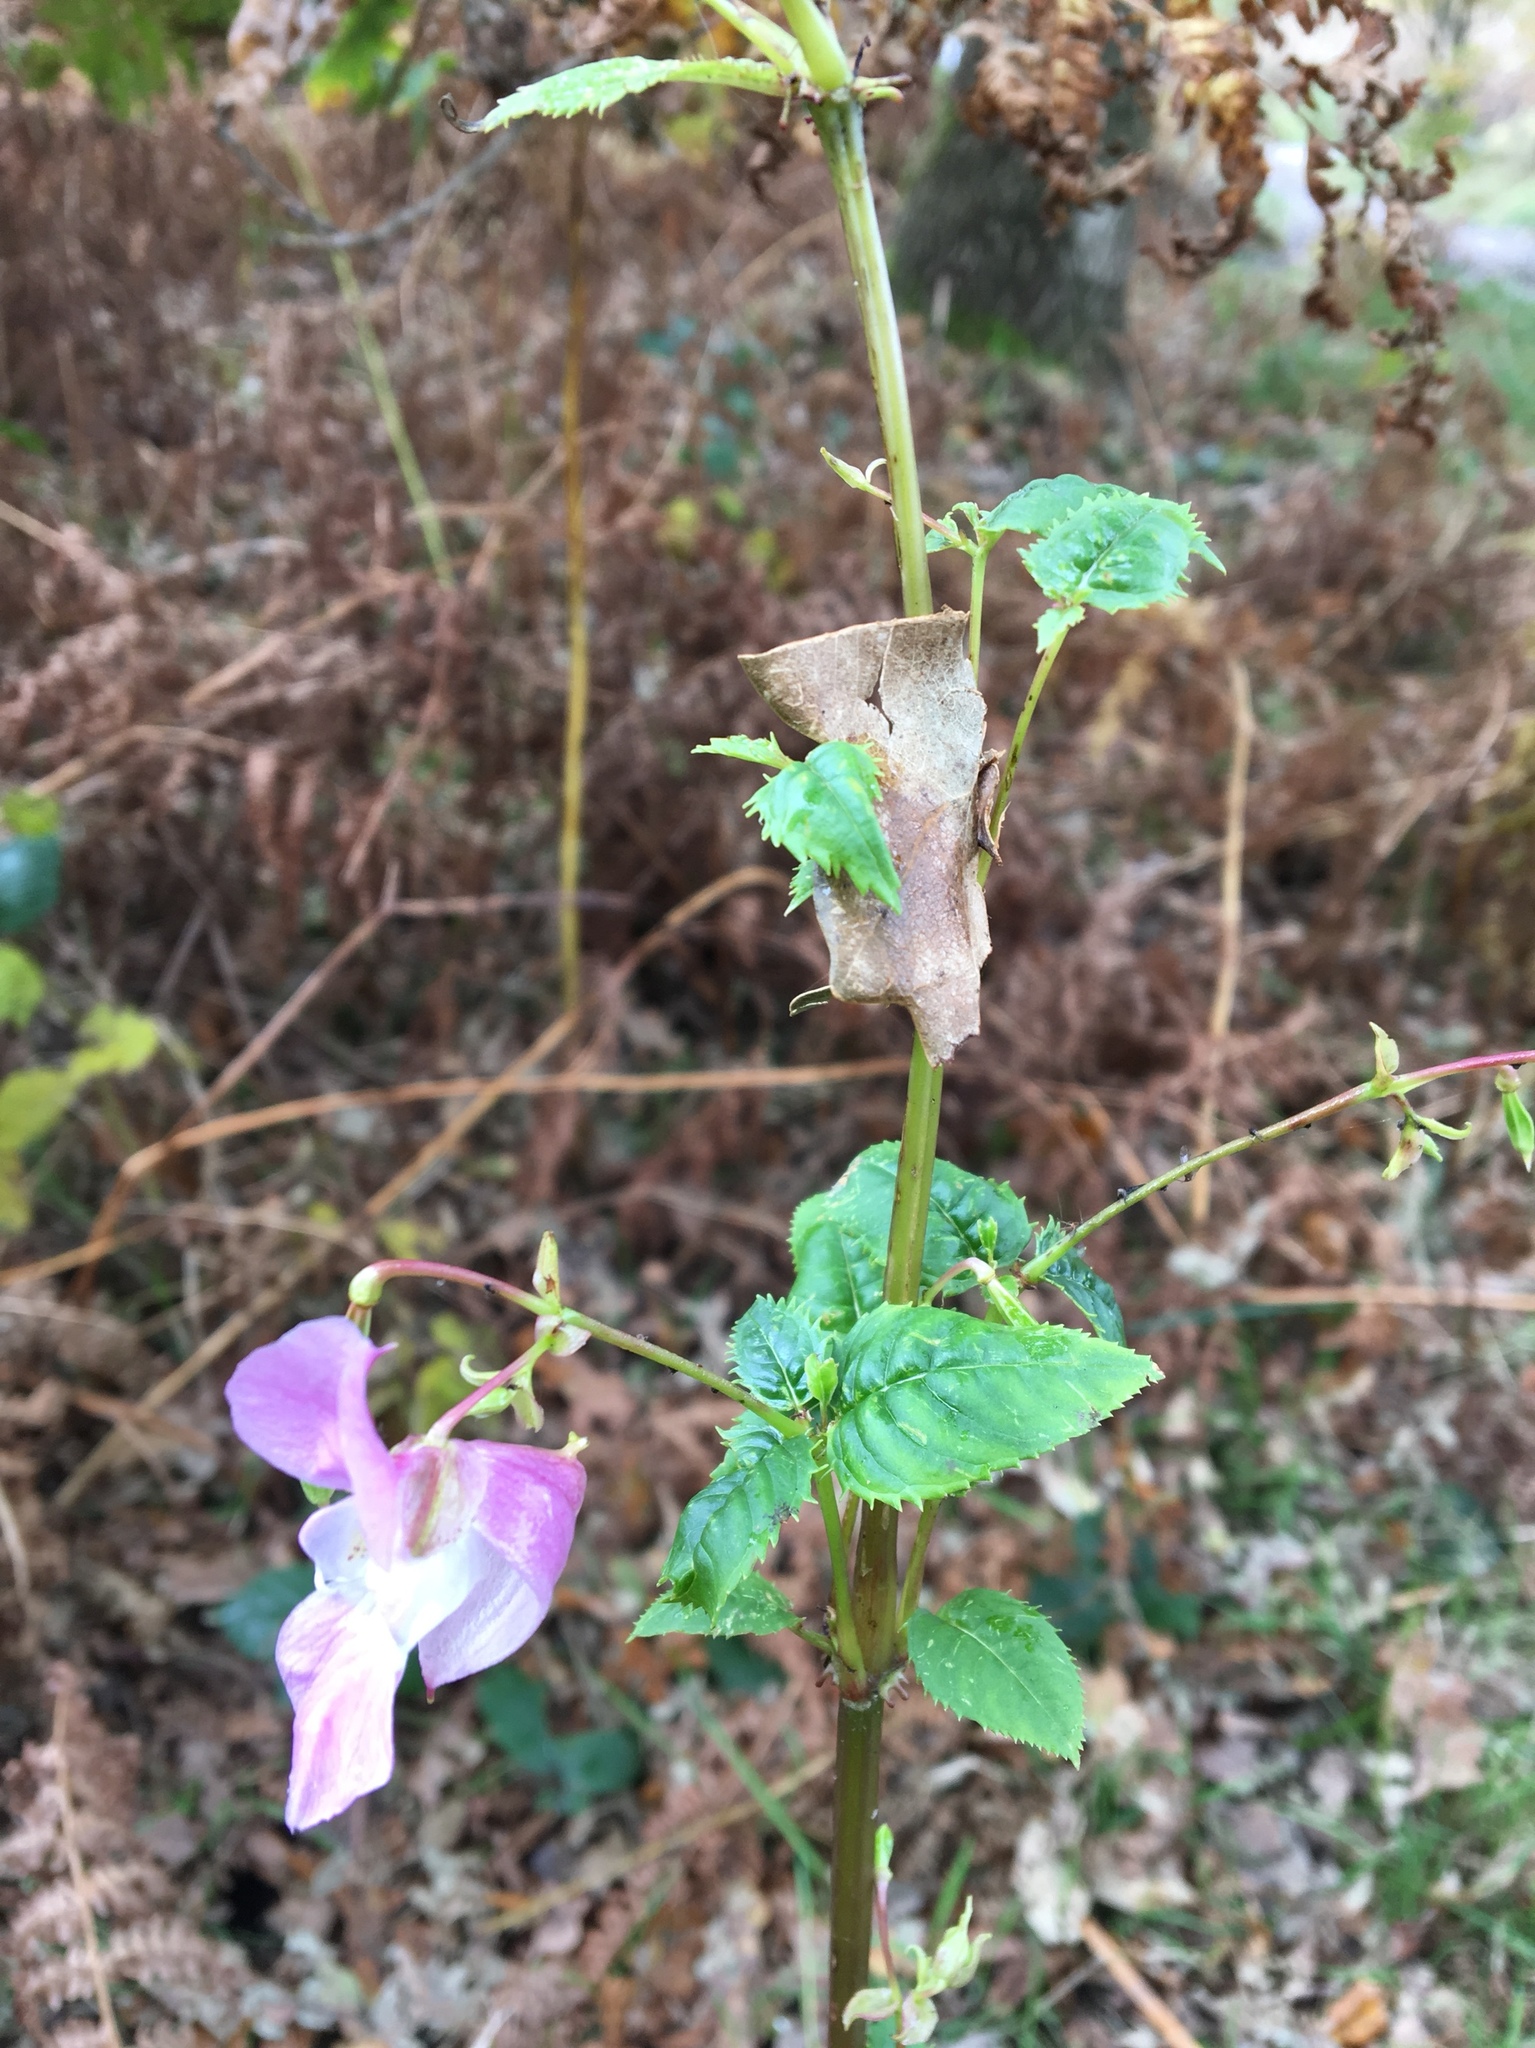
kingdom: Plantae
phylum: Tracheophyta
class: Magnoliopsida
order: Ericales
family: Balsaminaceae
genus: Impatiens
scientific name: Impatiens glandulifera
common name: Himalayan balsam
